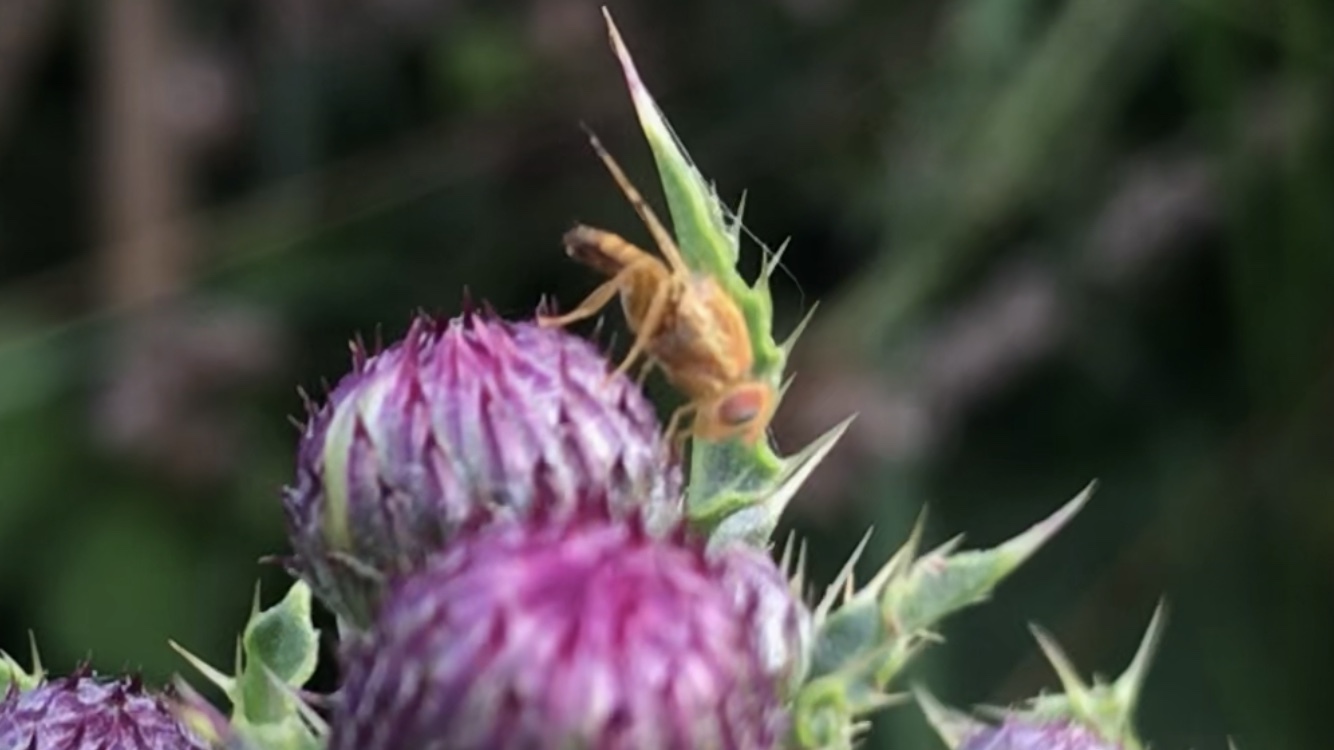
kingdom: Animalia
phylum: Arthropoda
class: Insecta
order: Diptera
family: Tephritidae
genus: Xyphosia
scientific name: Xyphosia miliaria
